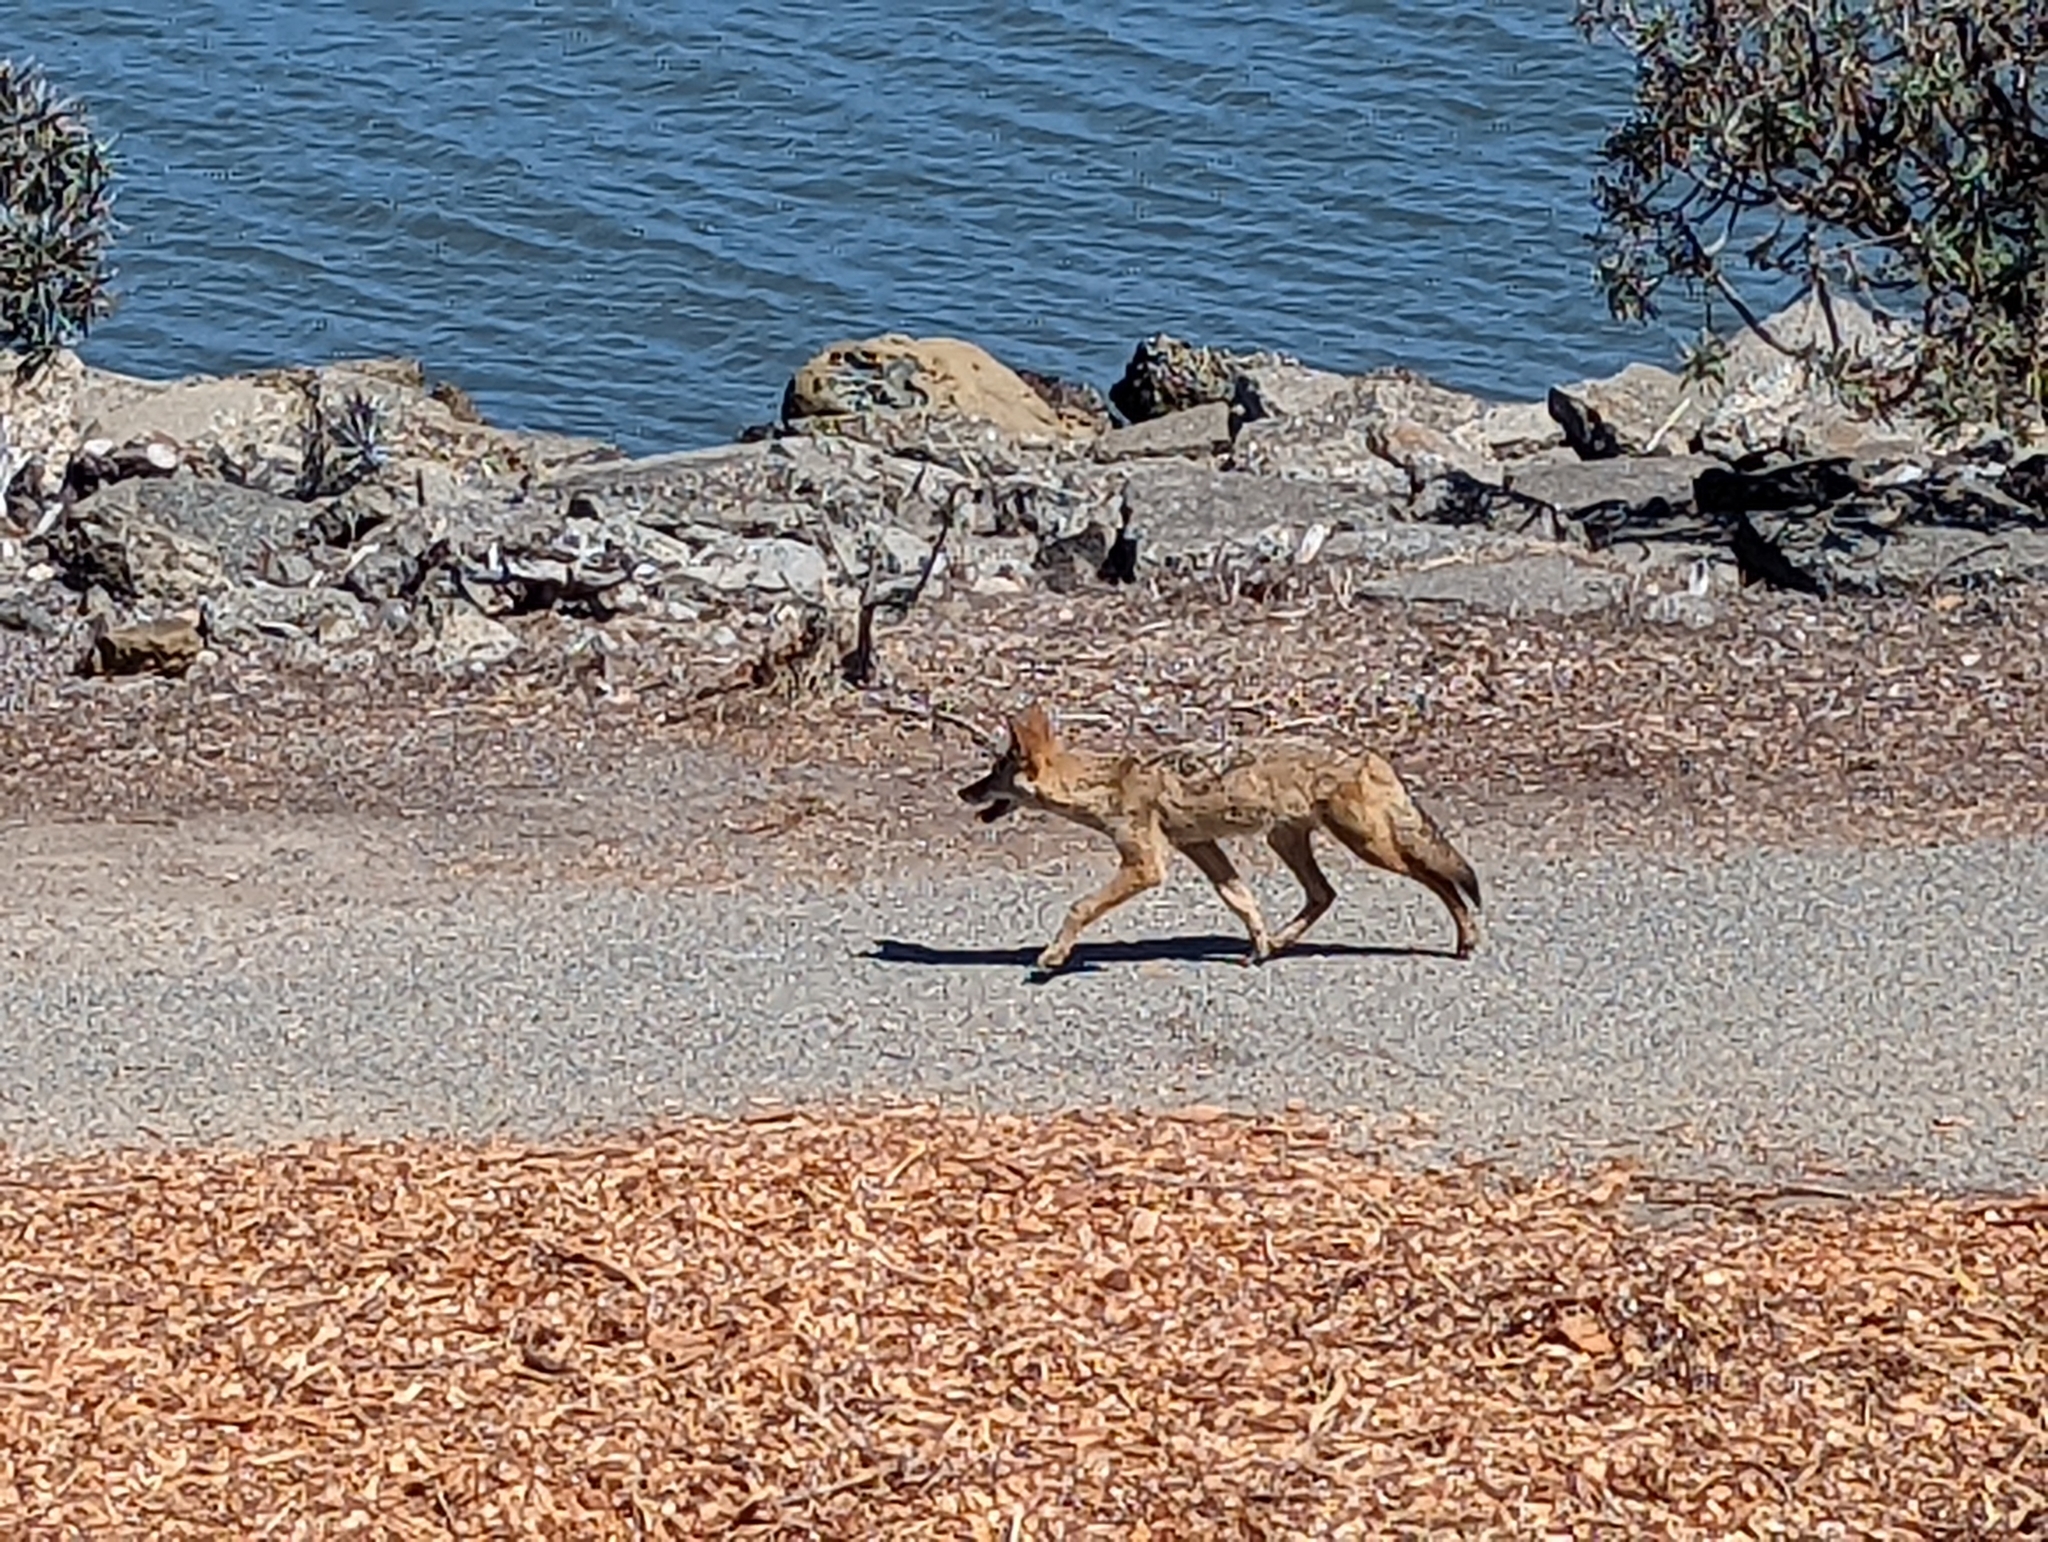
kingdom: Animalia
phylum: Chordata
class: Mammalia
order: Carnivora
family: Canidae
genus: Canis
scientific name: Canis latrans
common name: Coyote
